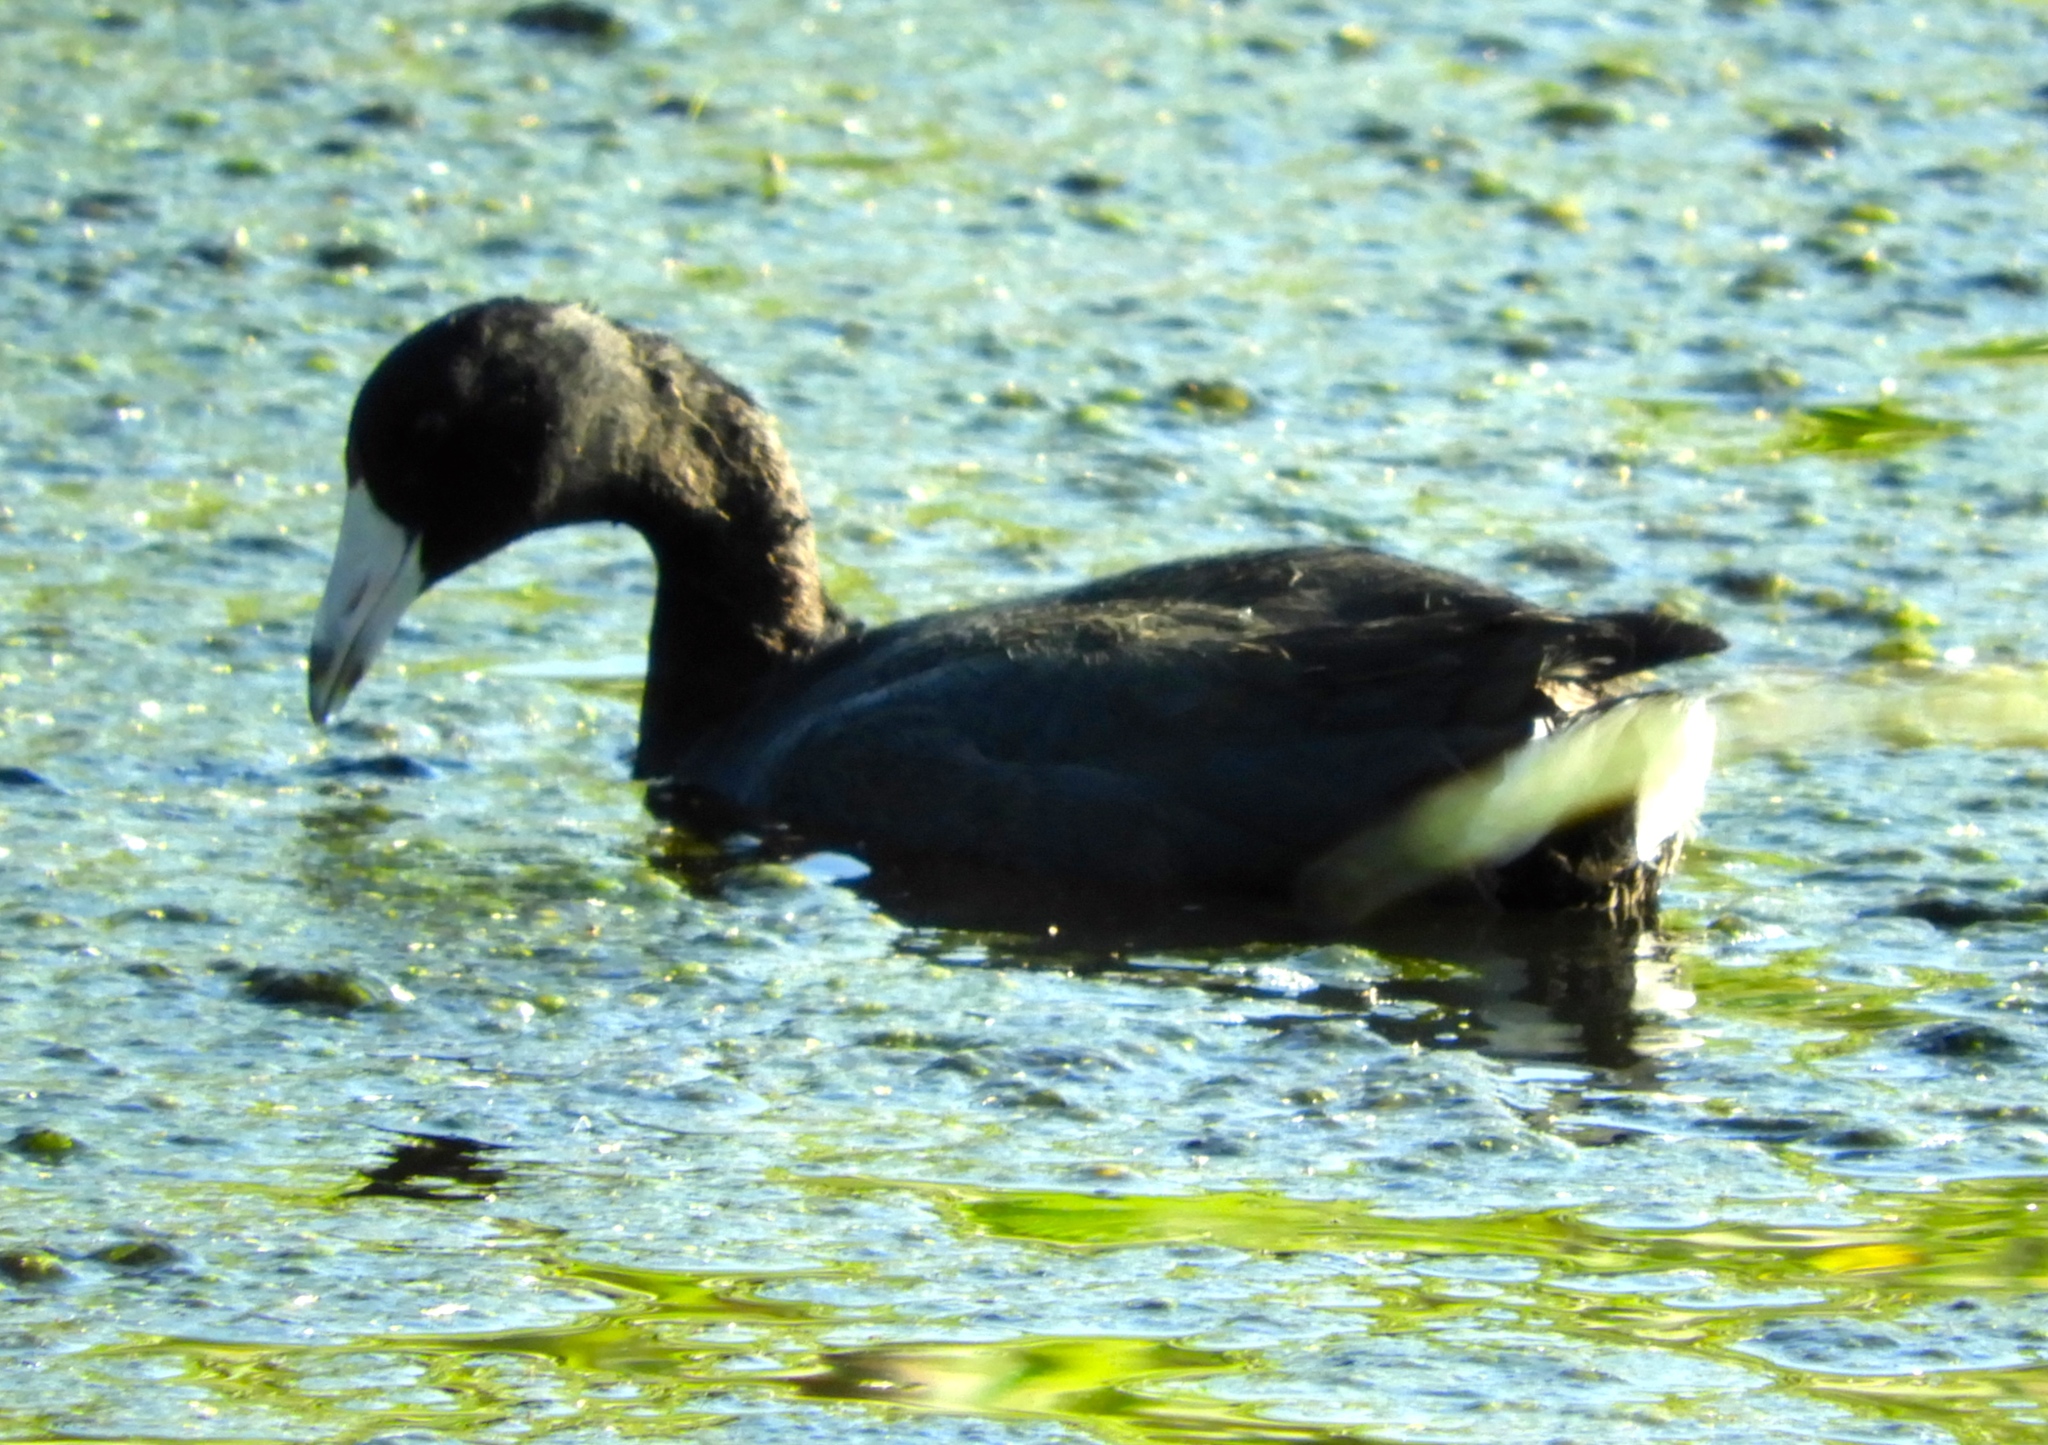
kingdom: Animalia
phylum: Chordata
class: Aves
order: Gruiformes
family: Rallidae
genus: Fulica
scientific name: Fulica americana
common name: American coot
